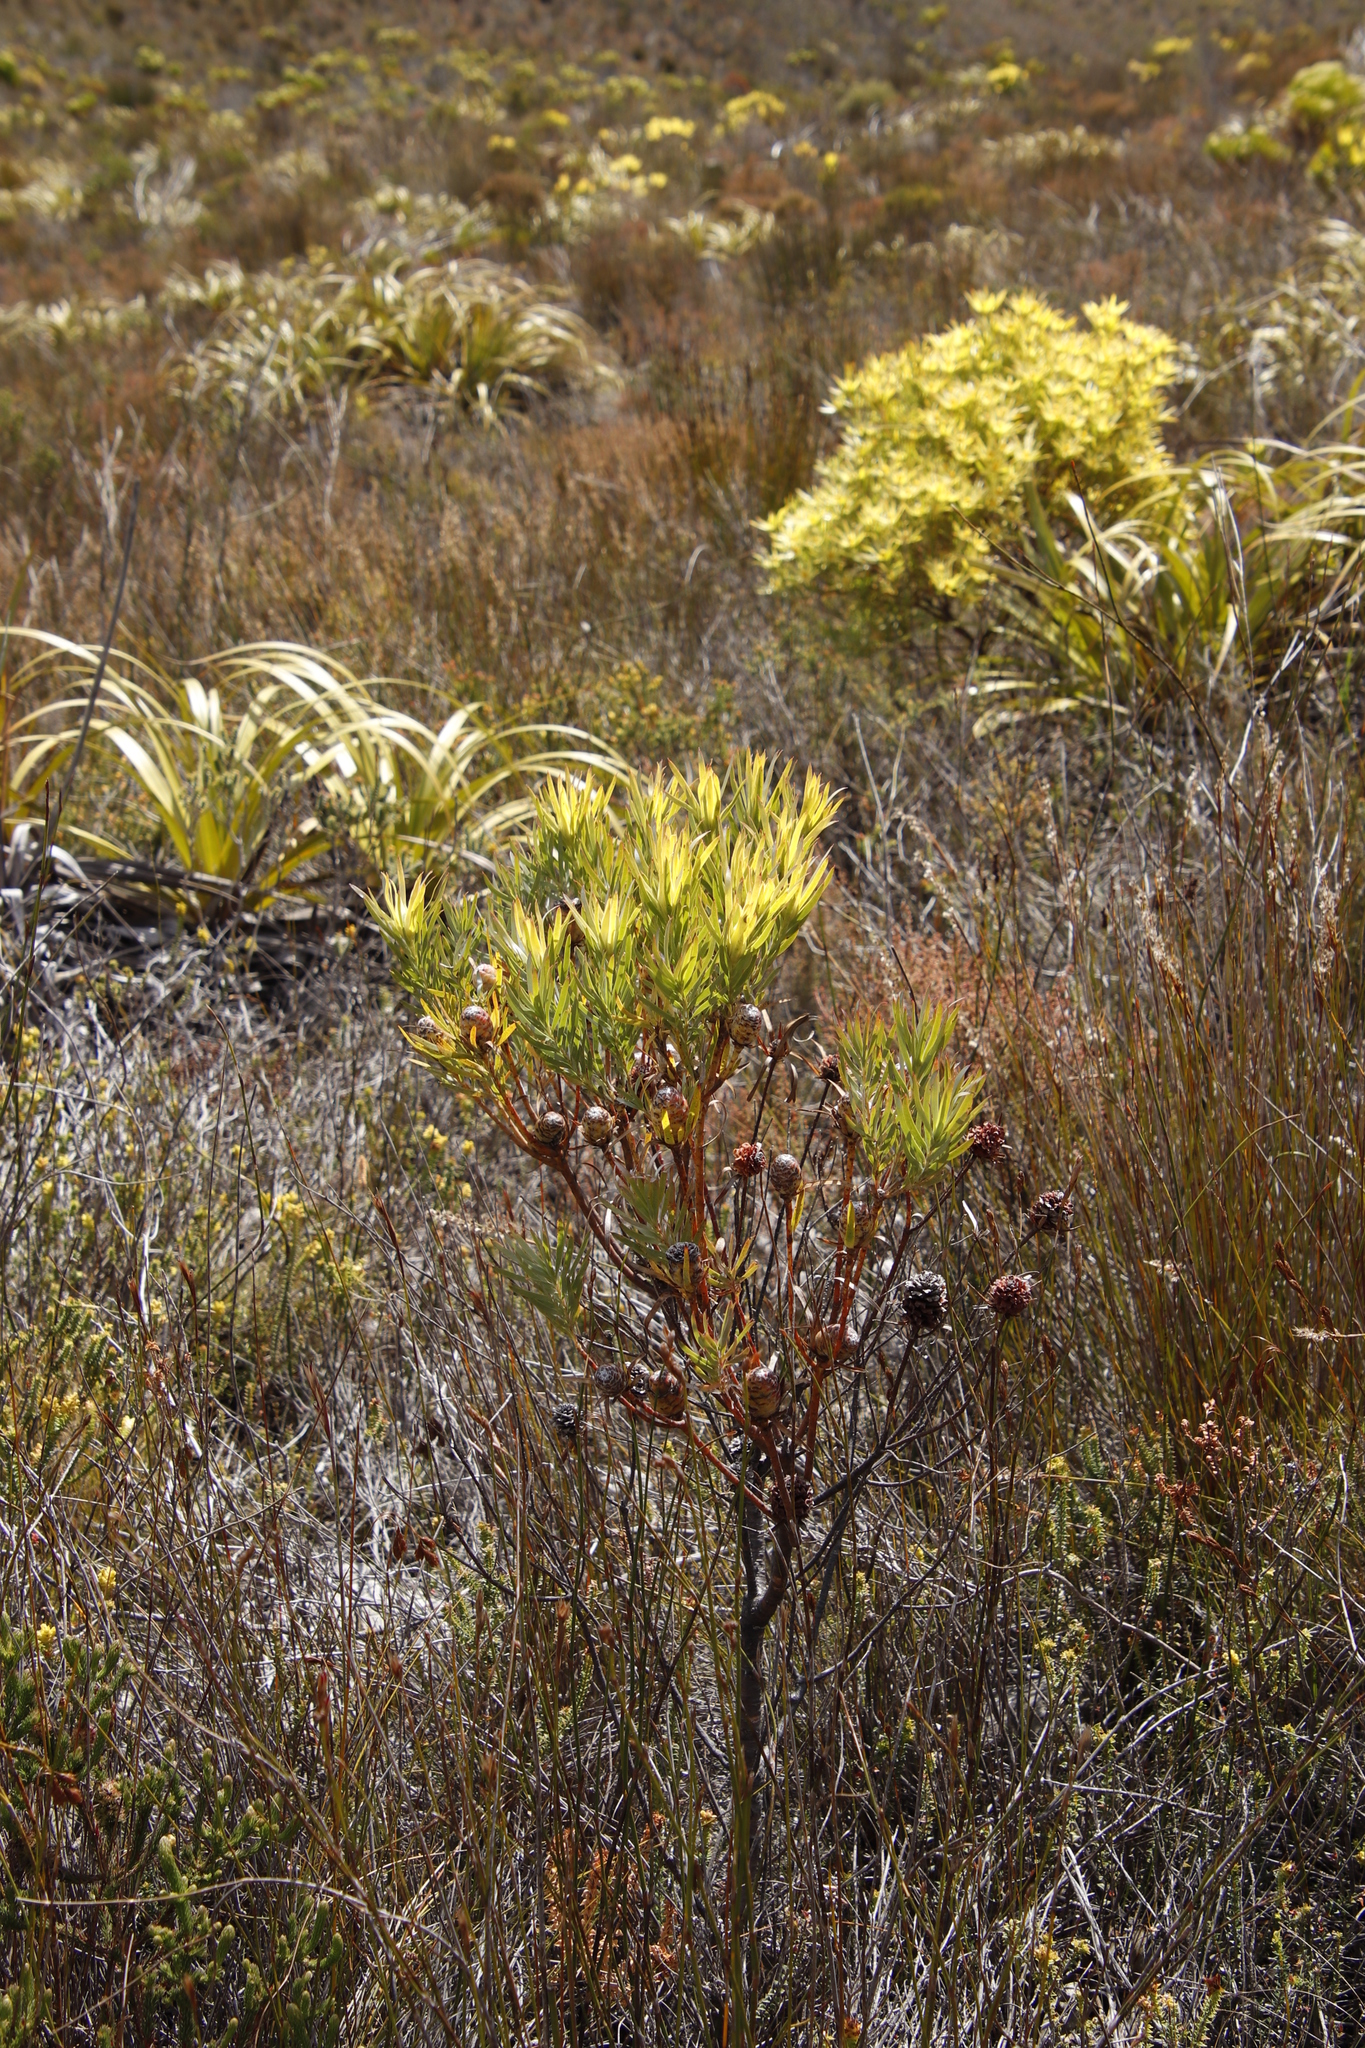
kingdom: Plantae
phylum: Tracheophyta
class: Magnoliopsida
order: Proteales
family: Proteaceae
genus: Leucadendron
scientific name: Leucadendron xanthoconus
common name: Sickle-leaf conebush
